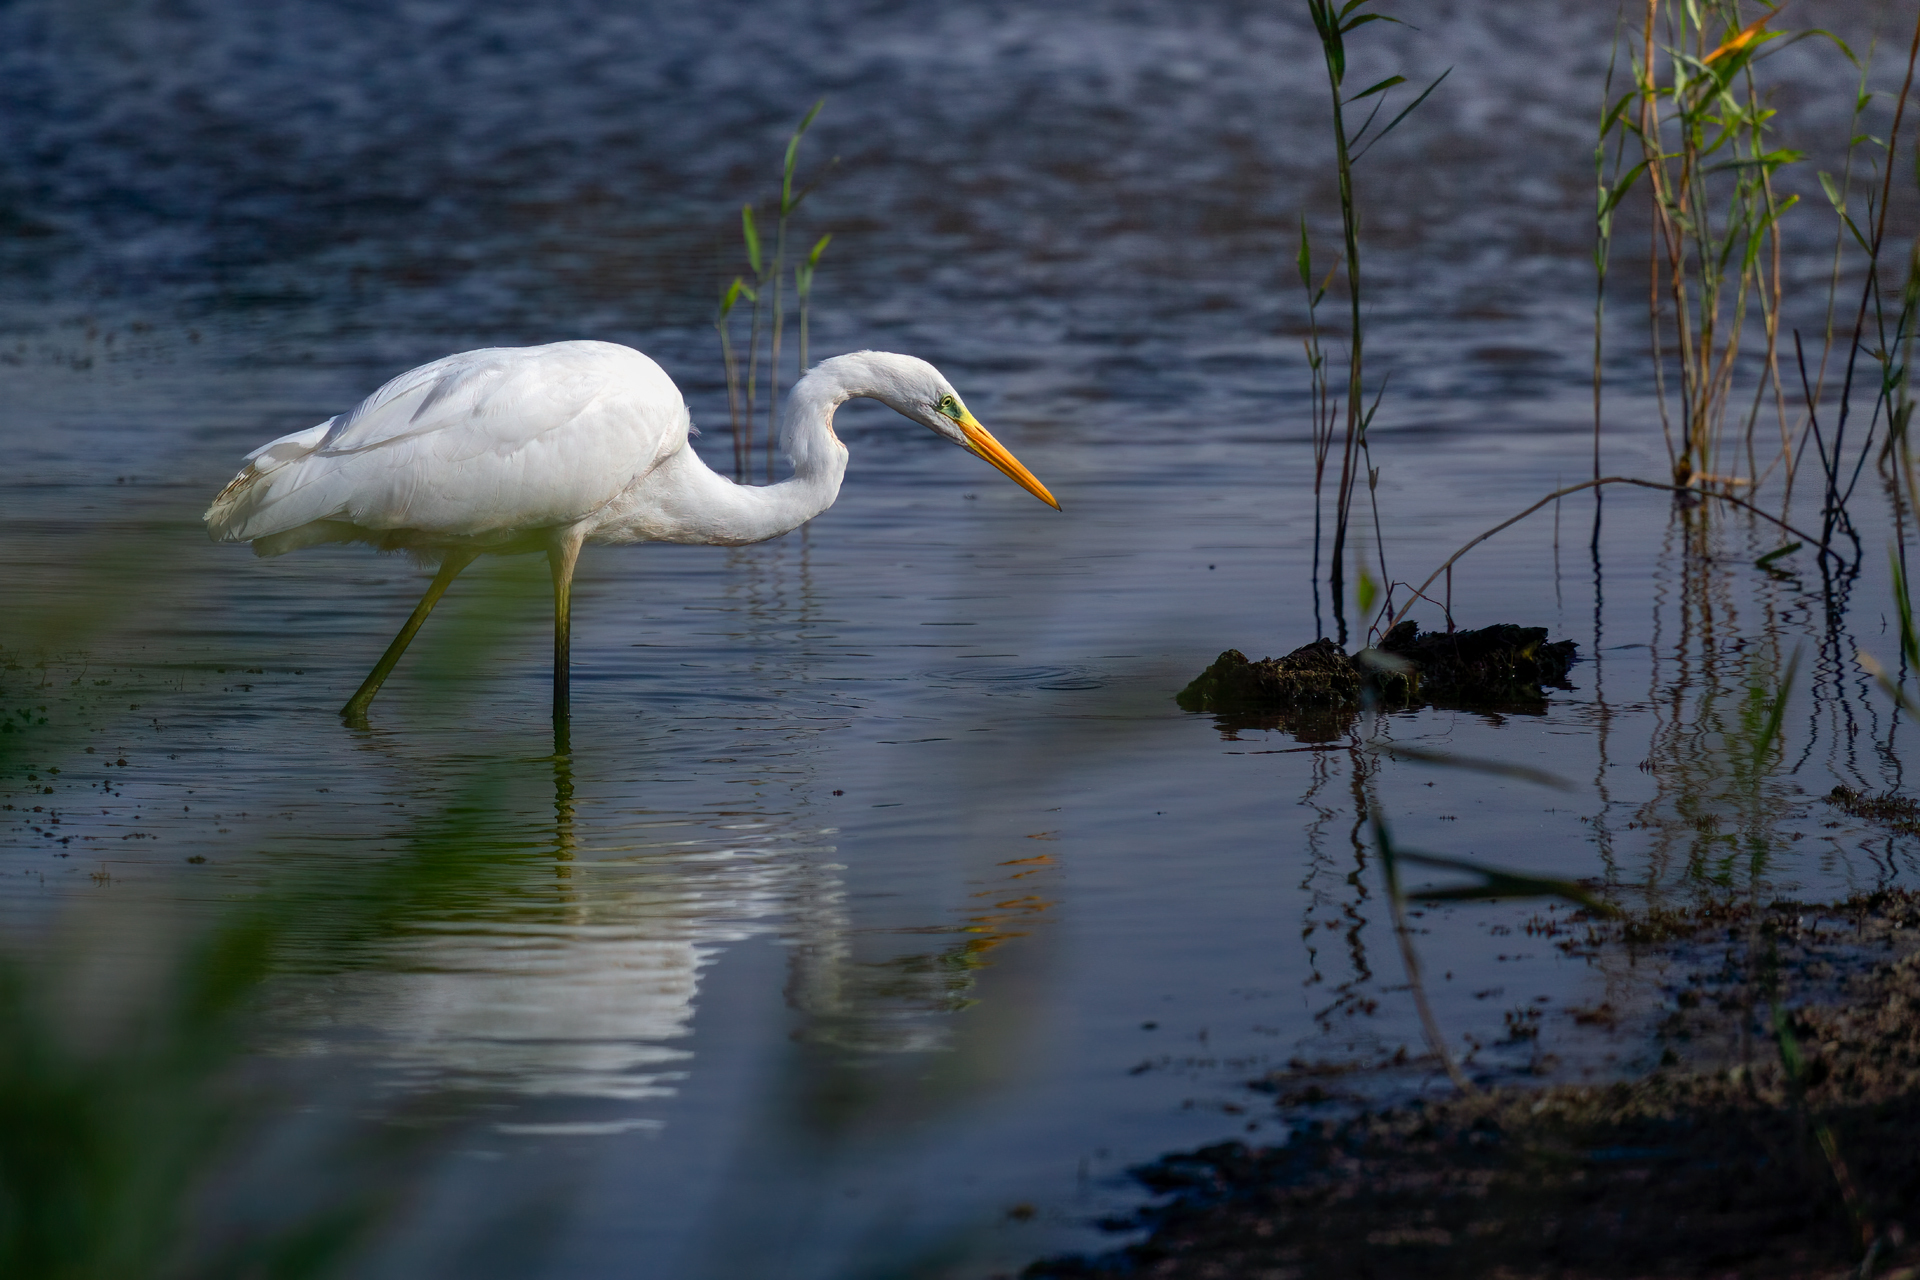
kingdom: Animalia
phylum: Chordata
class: Aves
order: Pelecaniformes
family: Ardeidae
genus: Ardea
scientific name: Ardea alba
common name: Great egret
